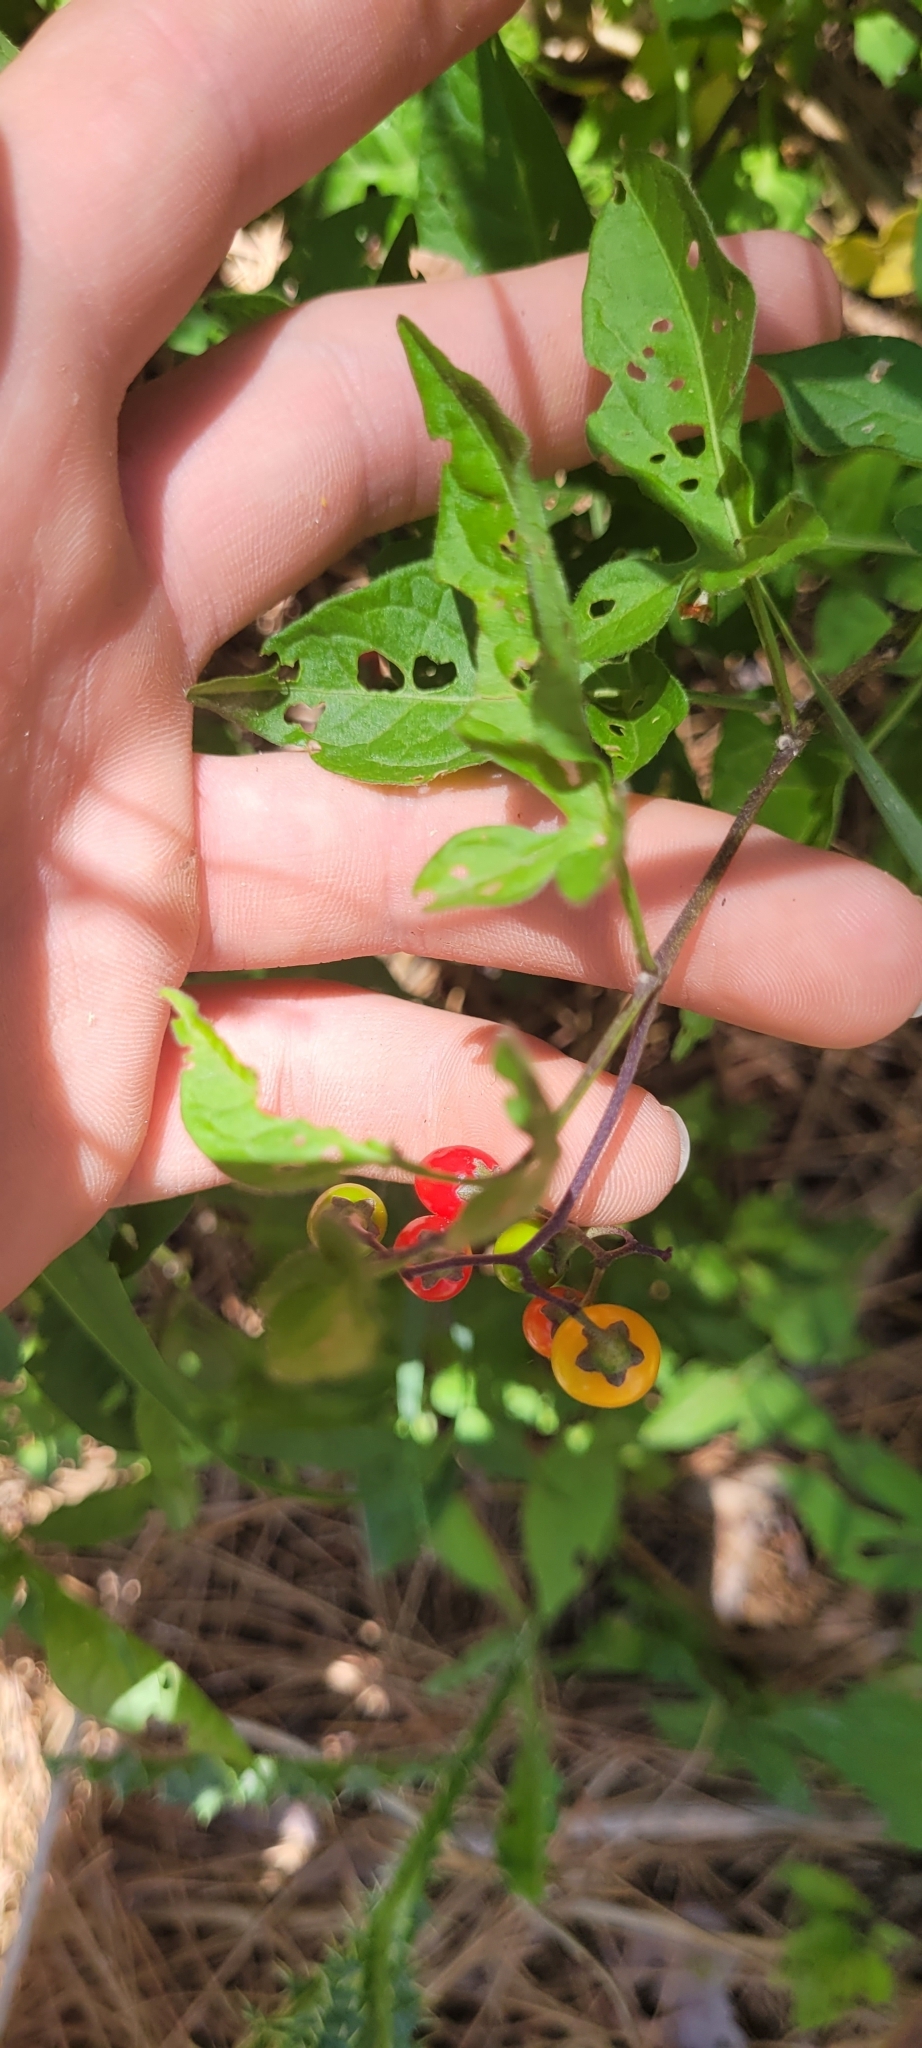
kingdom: Plantae
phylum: Tracheophyta
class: Magnoliopsida
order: Solanales
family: Solanaceae
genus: Solanum
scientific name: Solanum dulcamara
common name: Climbing nightshade
